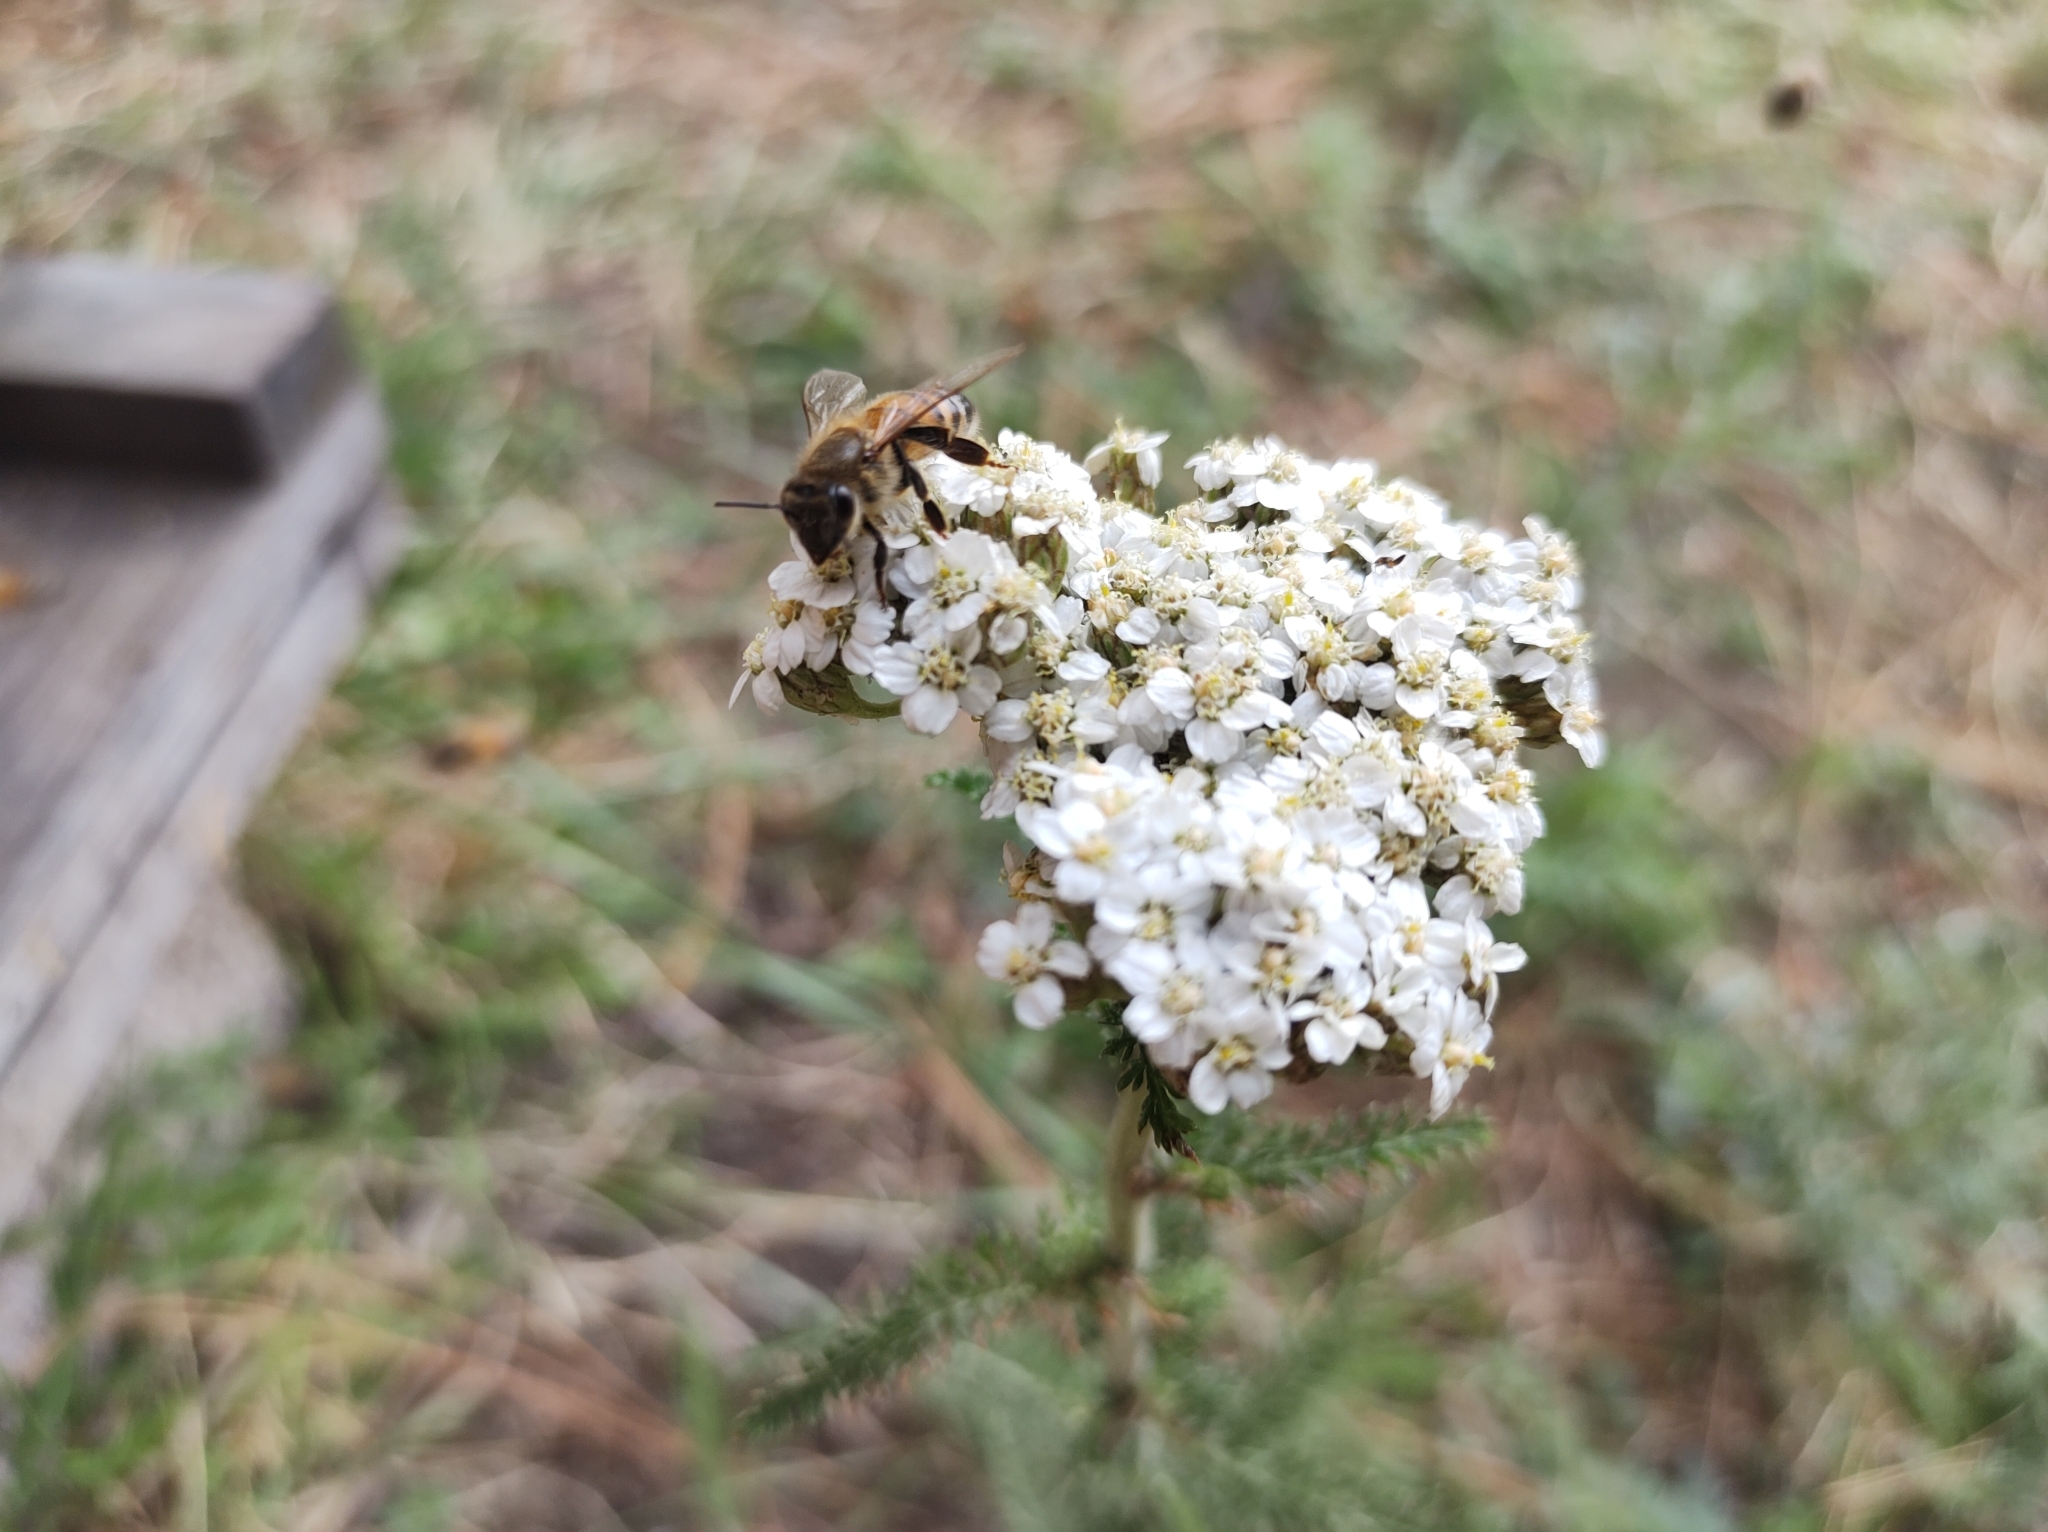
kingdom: Plantae
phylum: Tracheophyta
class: Magnoliopsida
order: Asterales
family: Asteraceae
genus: Achillea
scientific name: Achillea millefolium
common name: Yarrow
